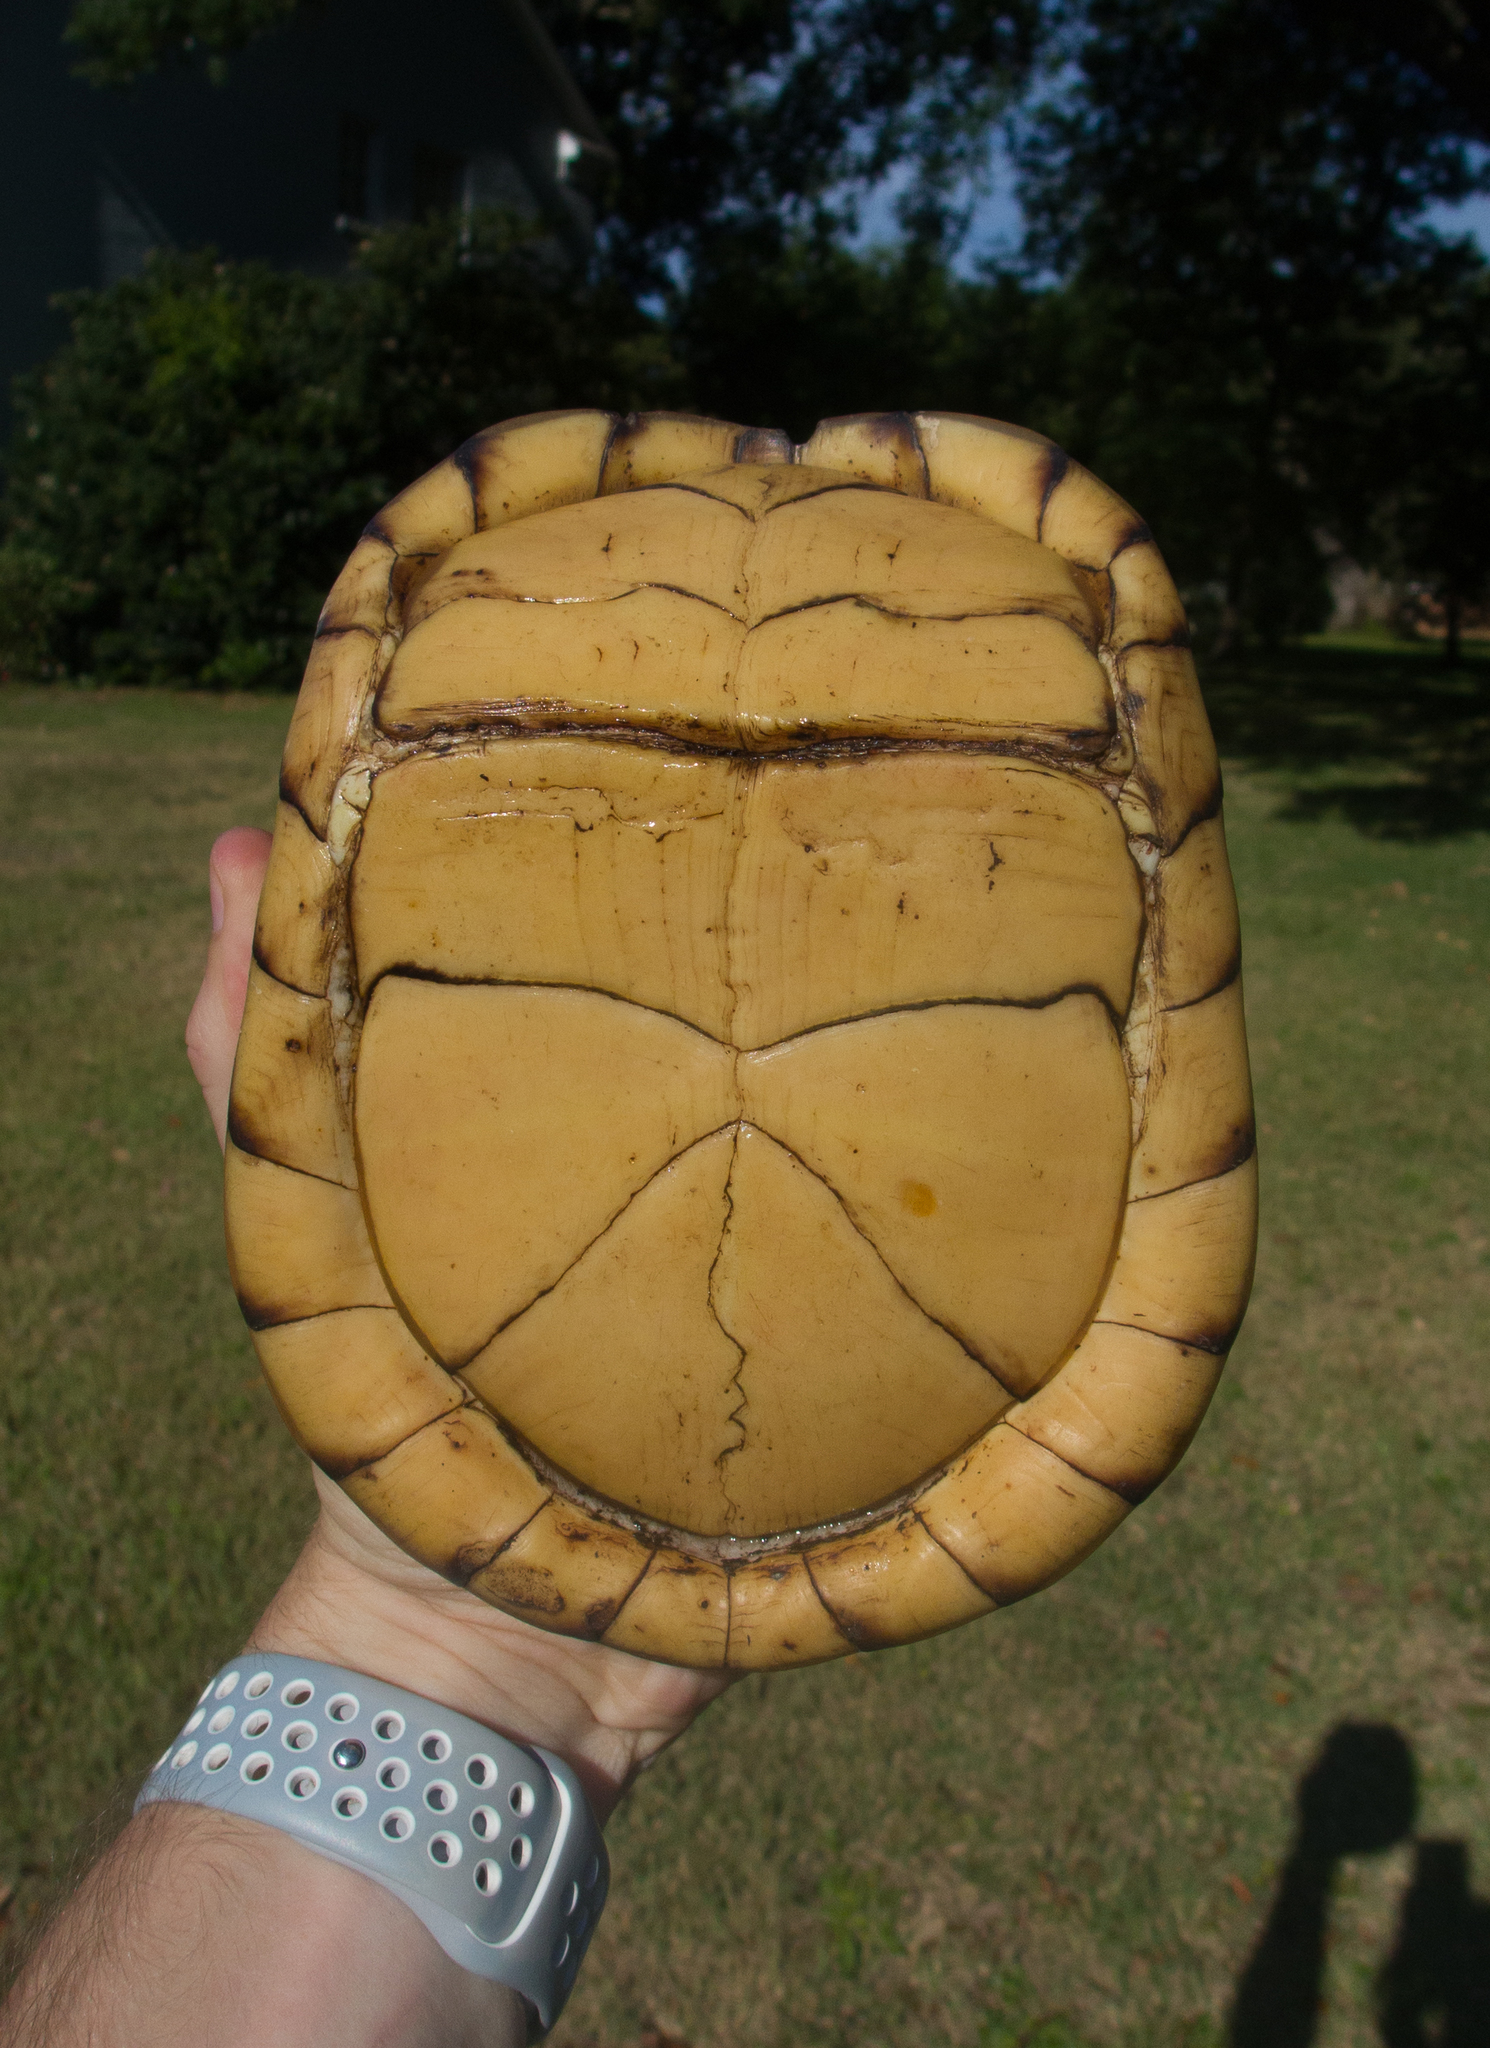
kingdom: Animalia
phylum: Chordata
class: Testudines
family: Emydidae
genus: Terrapene
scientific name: Terrapene carolina
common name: Common box turtle
